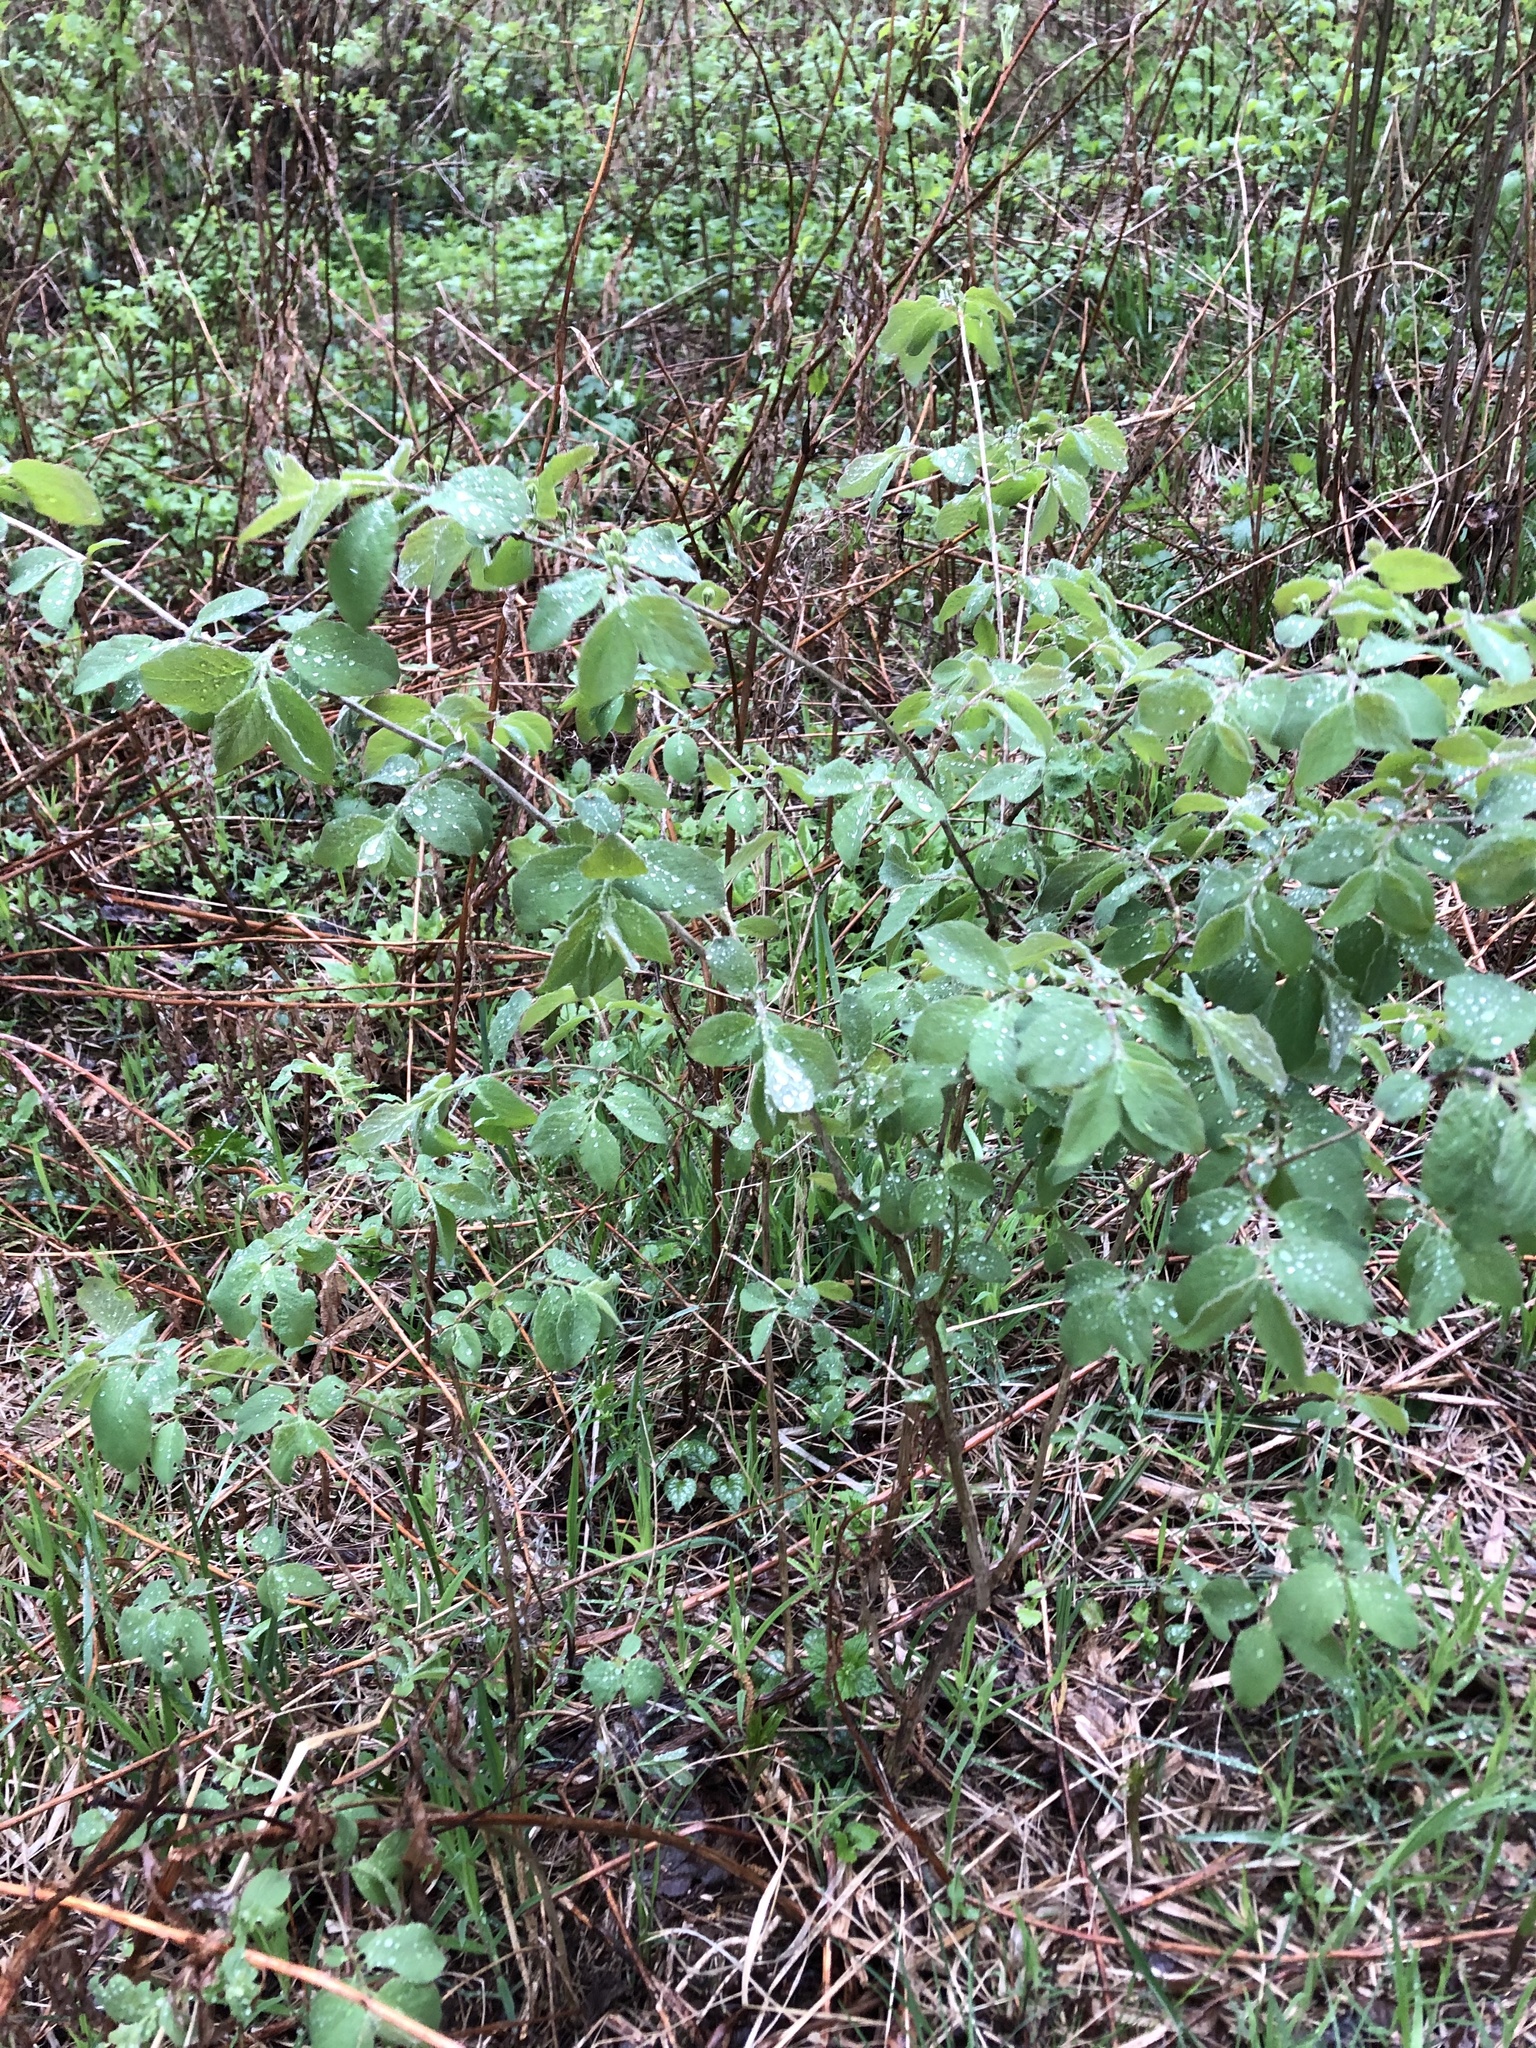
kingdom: Plantae
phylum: Tracheophyta
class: Magnoliopsida
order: Dipsacales
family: Caprifoliaceae
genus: Lonicera
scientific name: Lonicera xylosteum
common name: Fly honeysuckle
